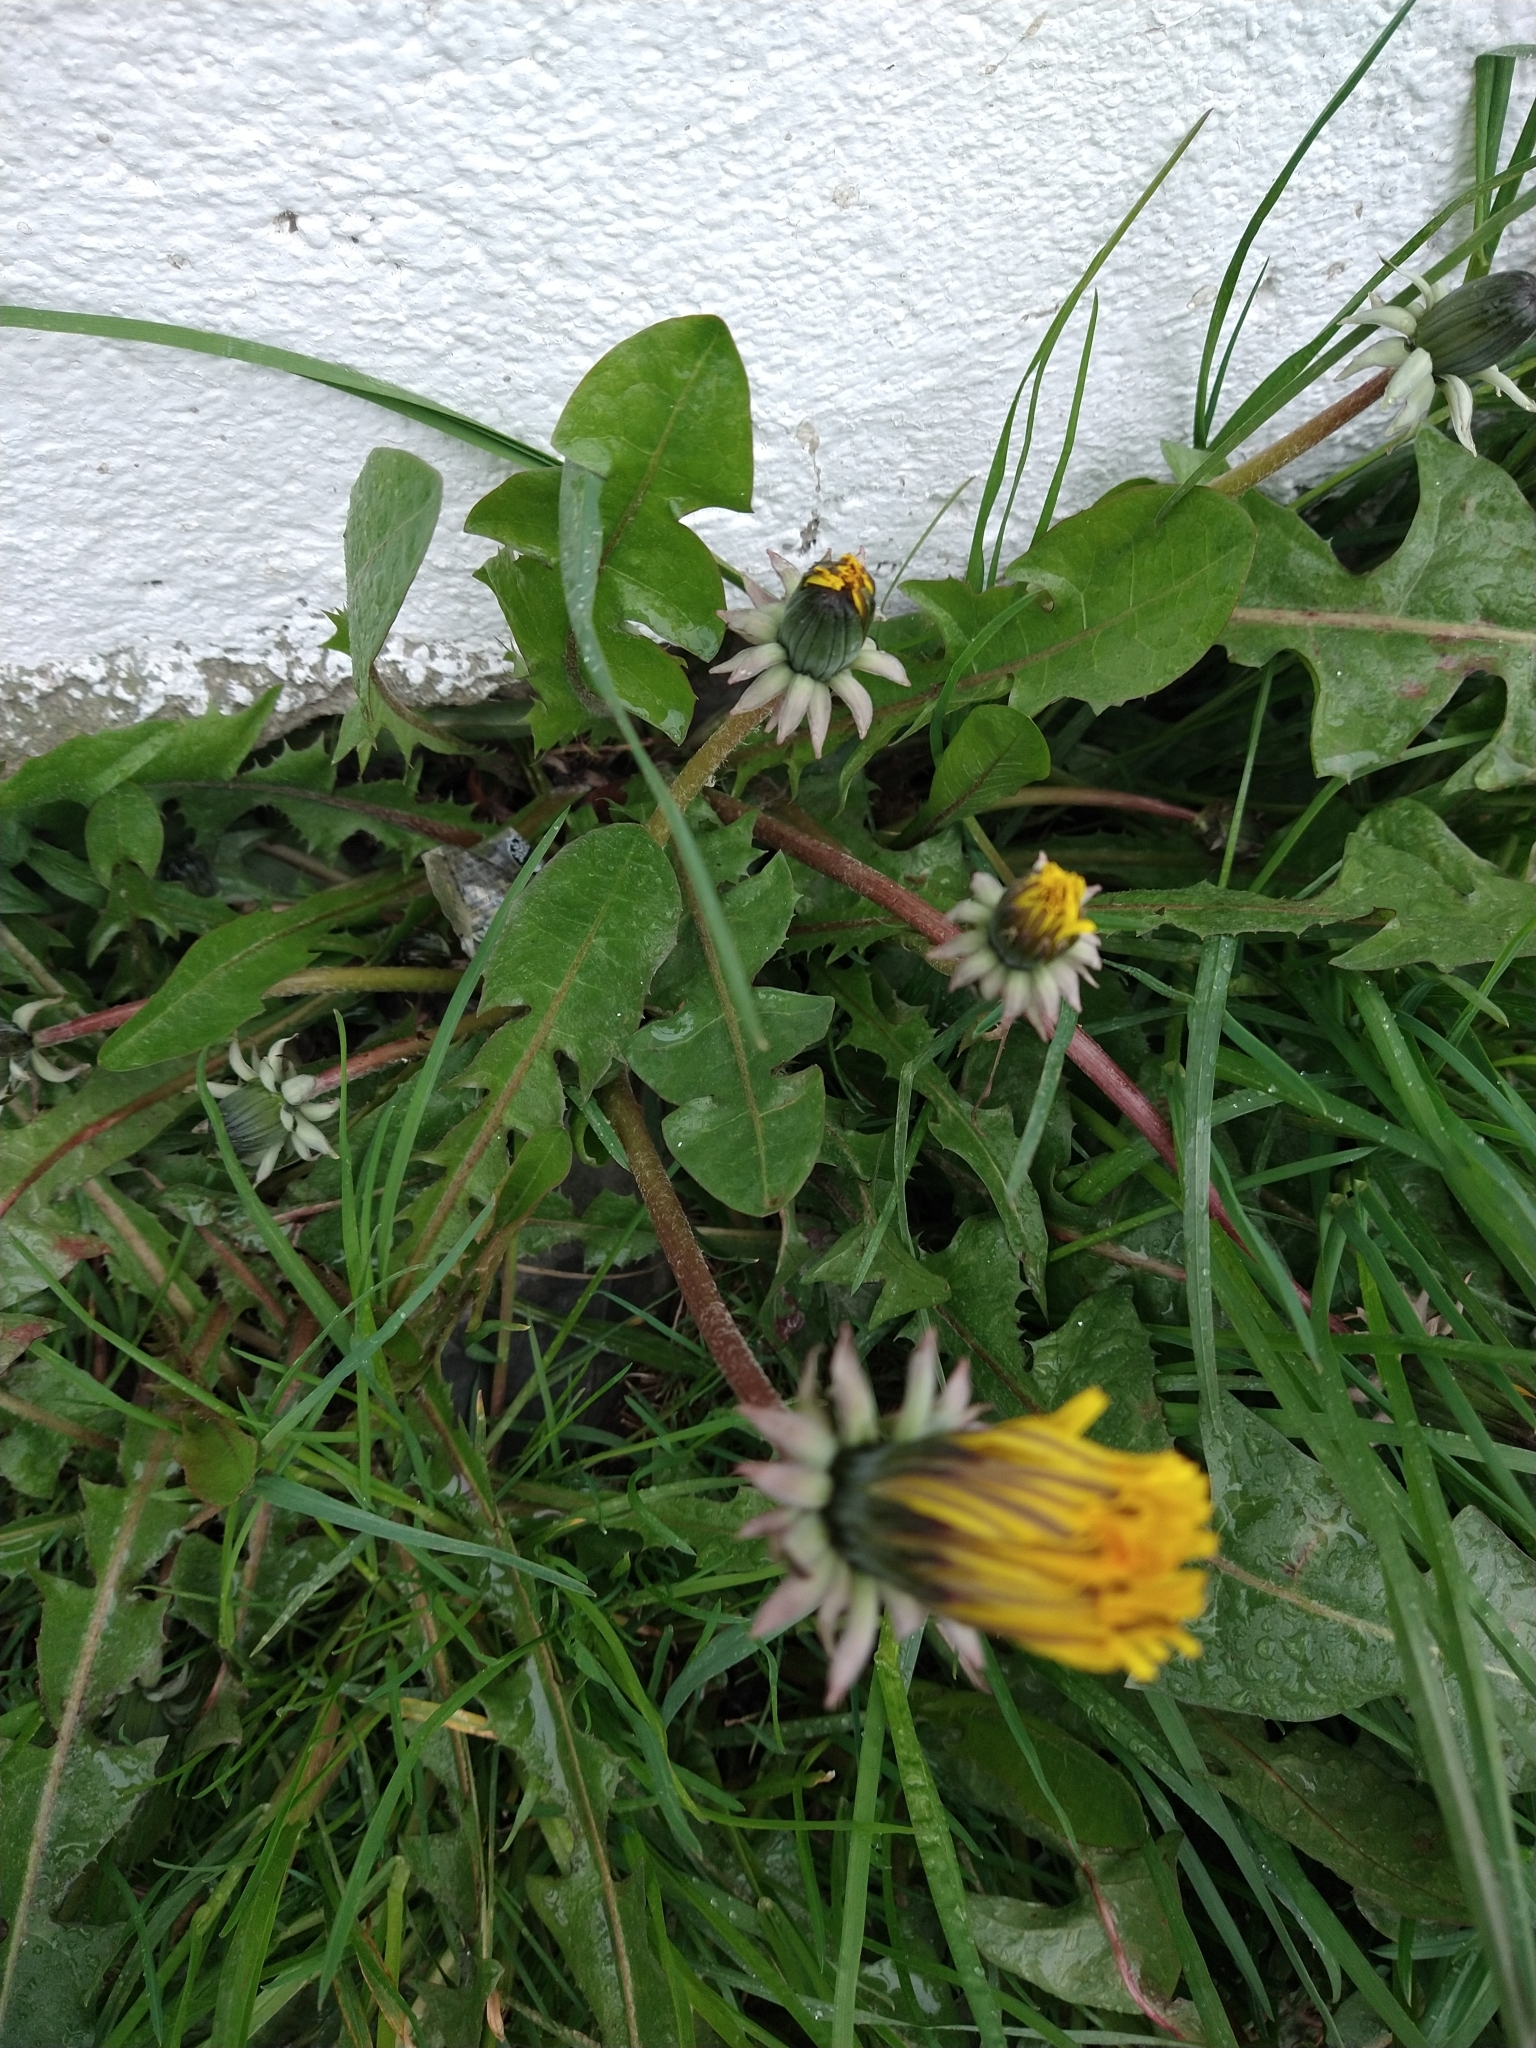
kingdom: Plantae
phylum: Tracheophyta
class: Magnoliopsida
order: Asterales
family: Asteraceae
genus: Taraxacum
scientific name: Taraxacum officinale
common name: Common dandelion
